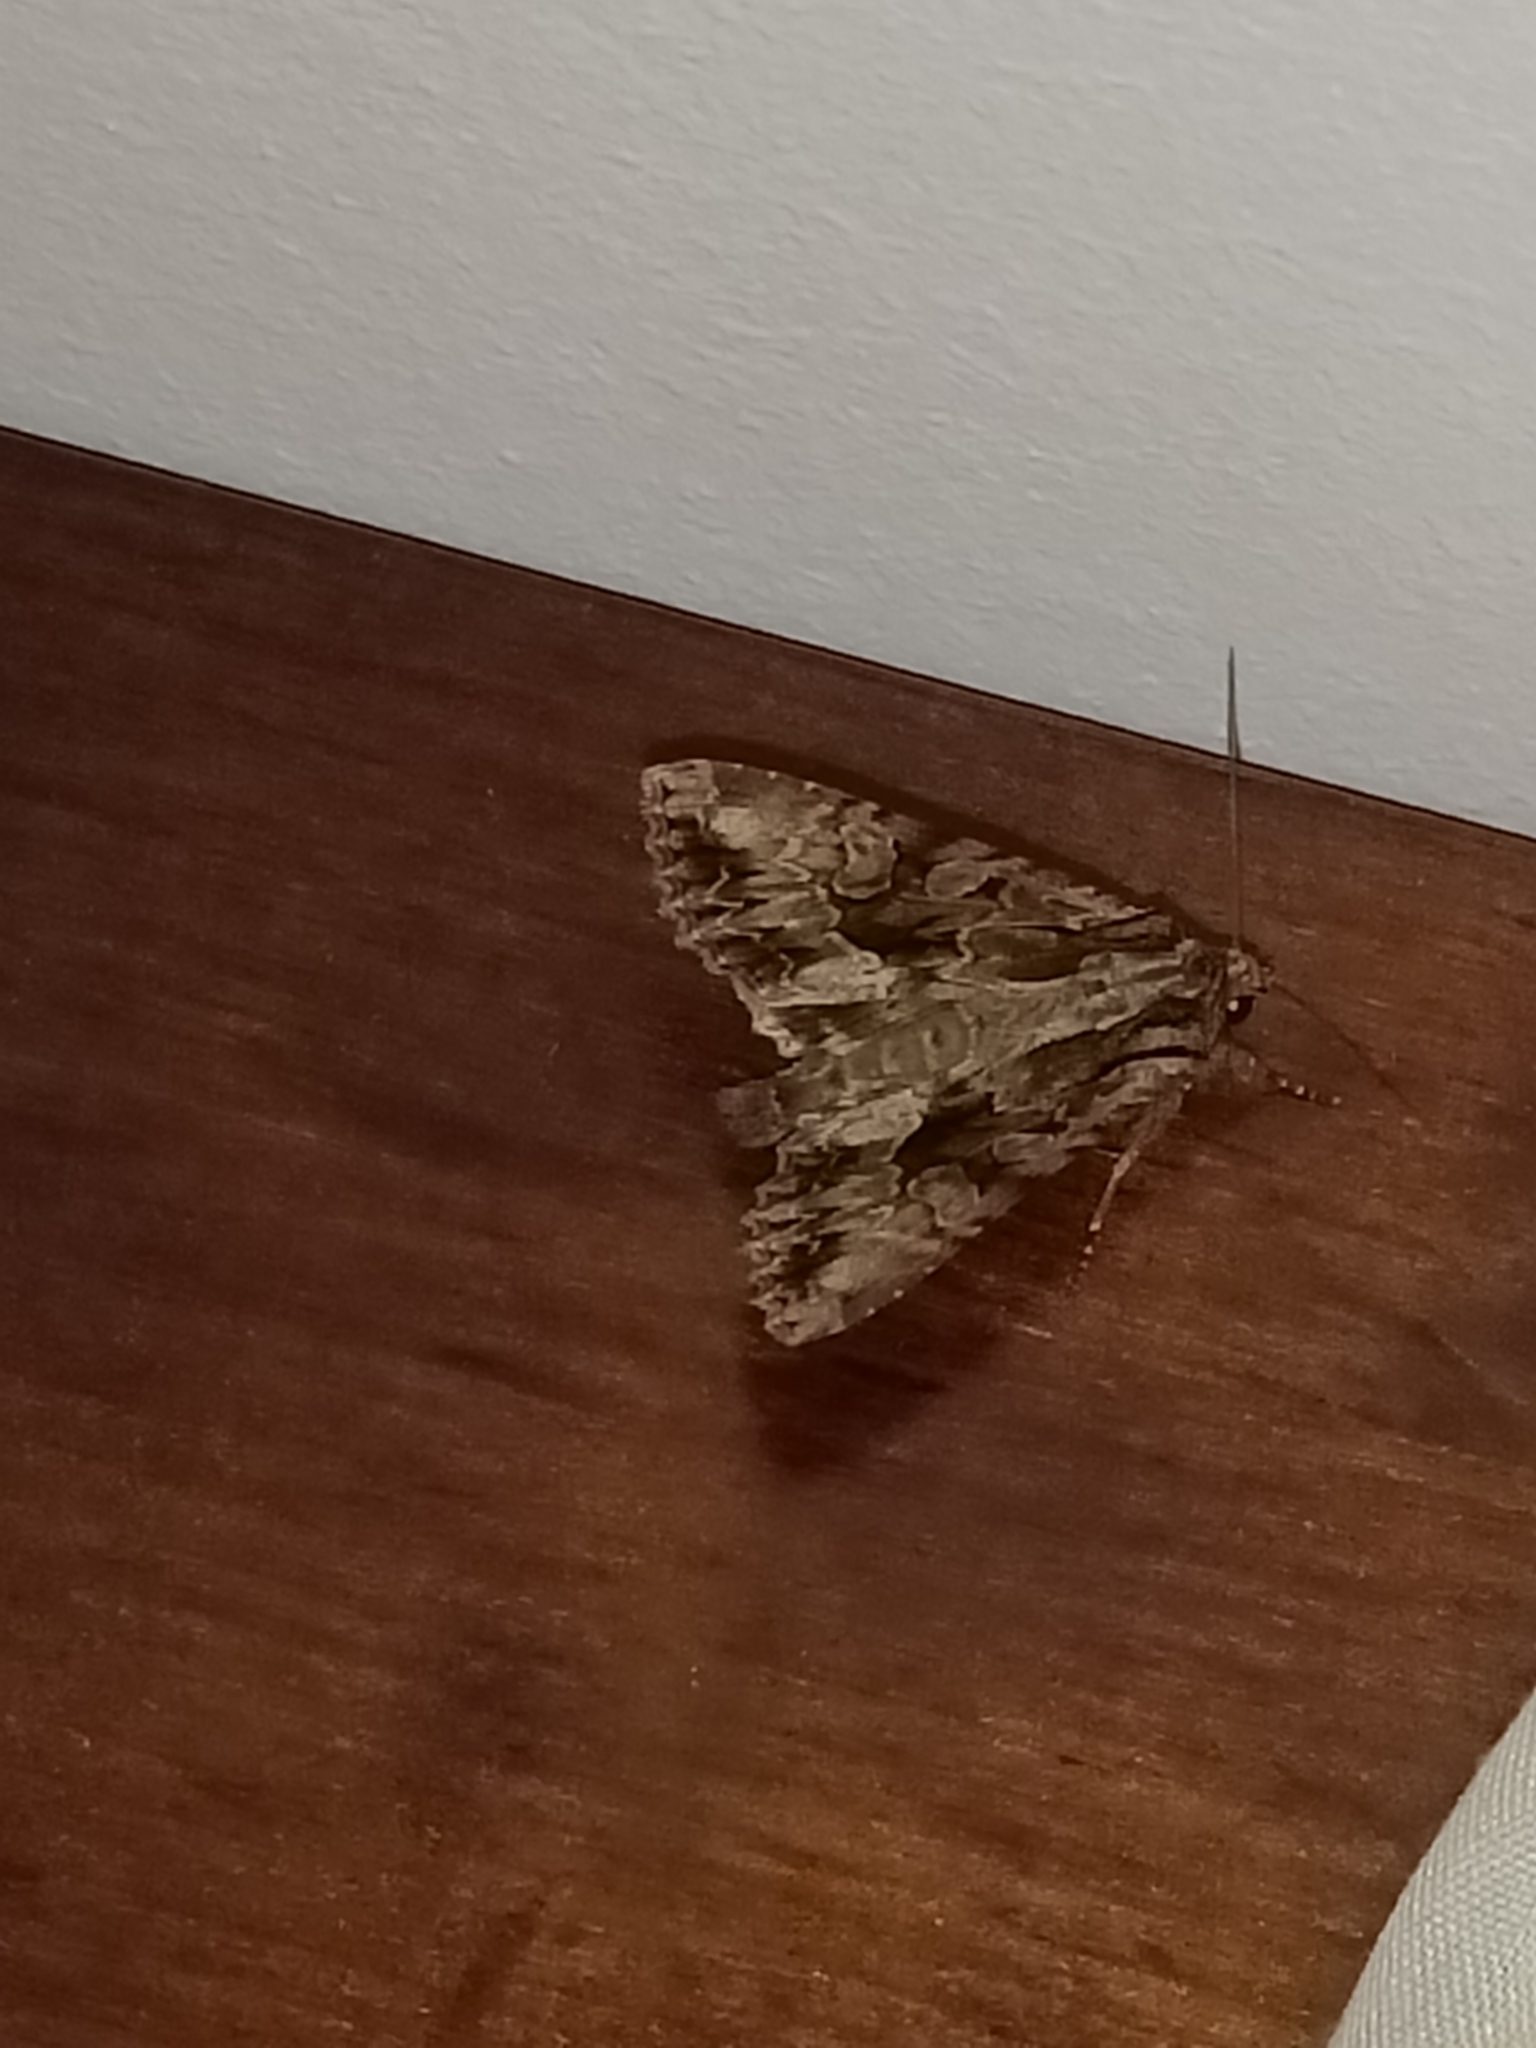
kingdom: Animalia
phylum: Arthropoda
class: Insecta
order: Lepidoptera
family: Noctuidae
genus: Apamea
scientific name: Apamea monoglypha
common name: Dark arches
